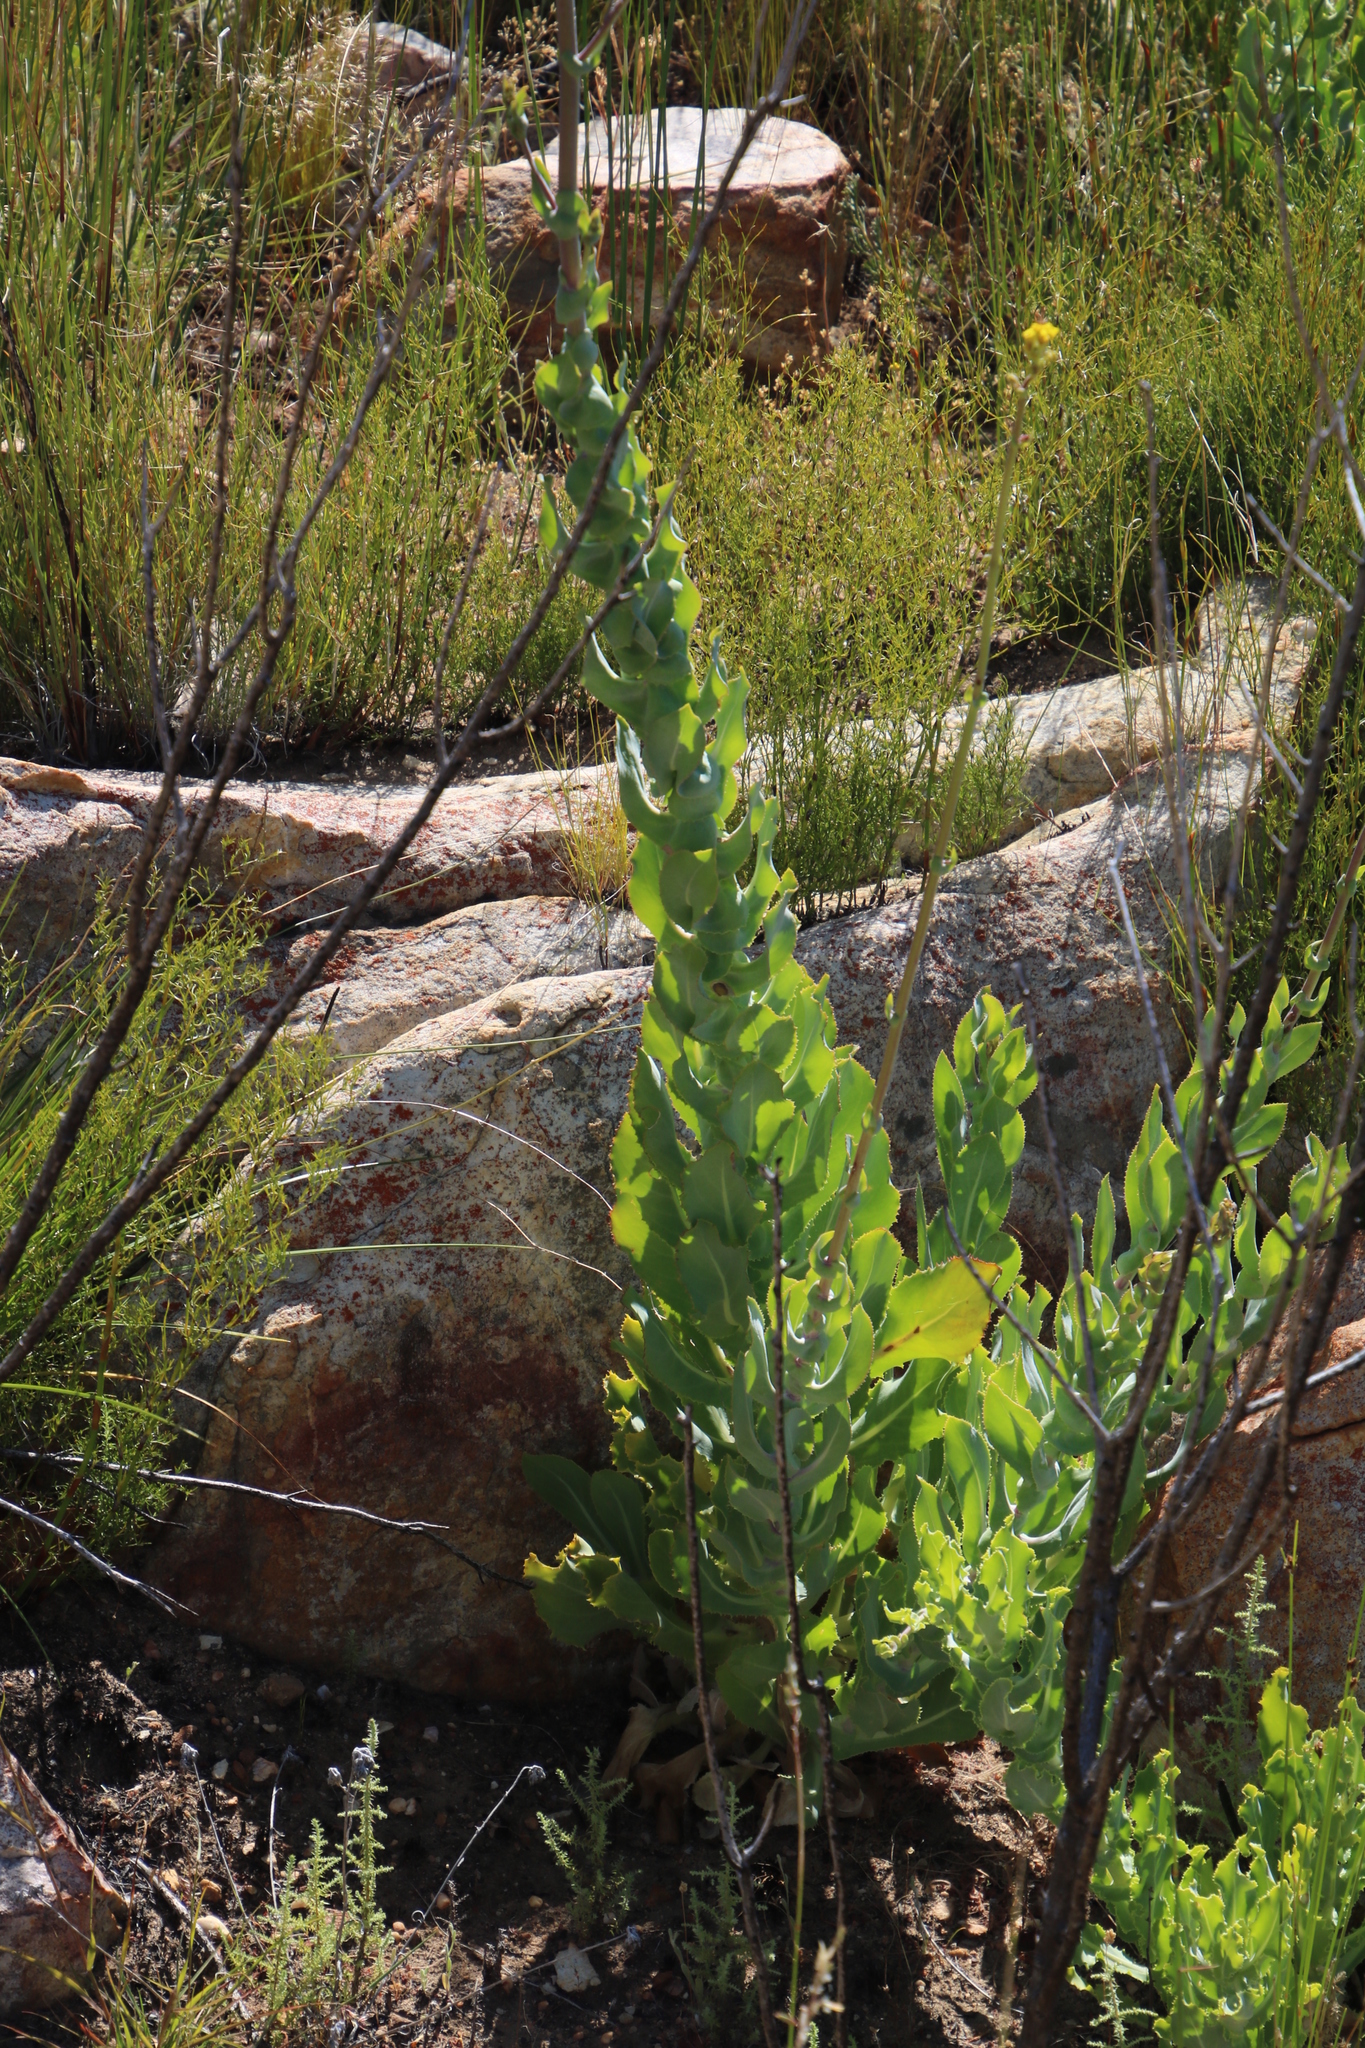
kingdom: Plantae
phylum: Tracheophyta
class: Magnoliopsida
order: Asterales
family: Asteraceae
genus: Othonna
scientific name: Othonna parviflora
